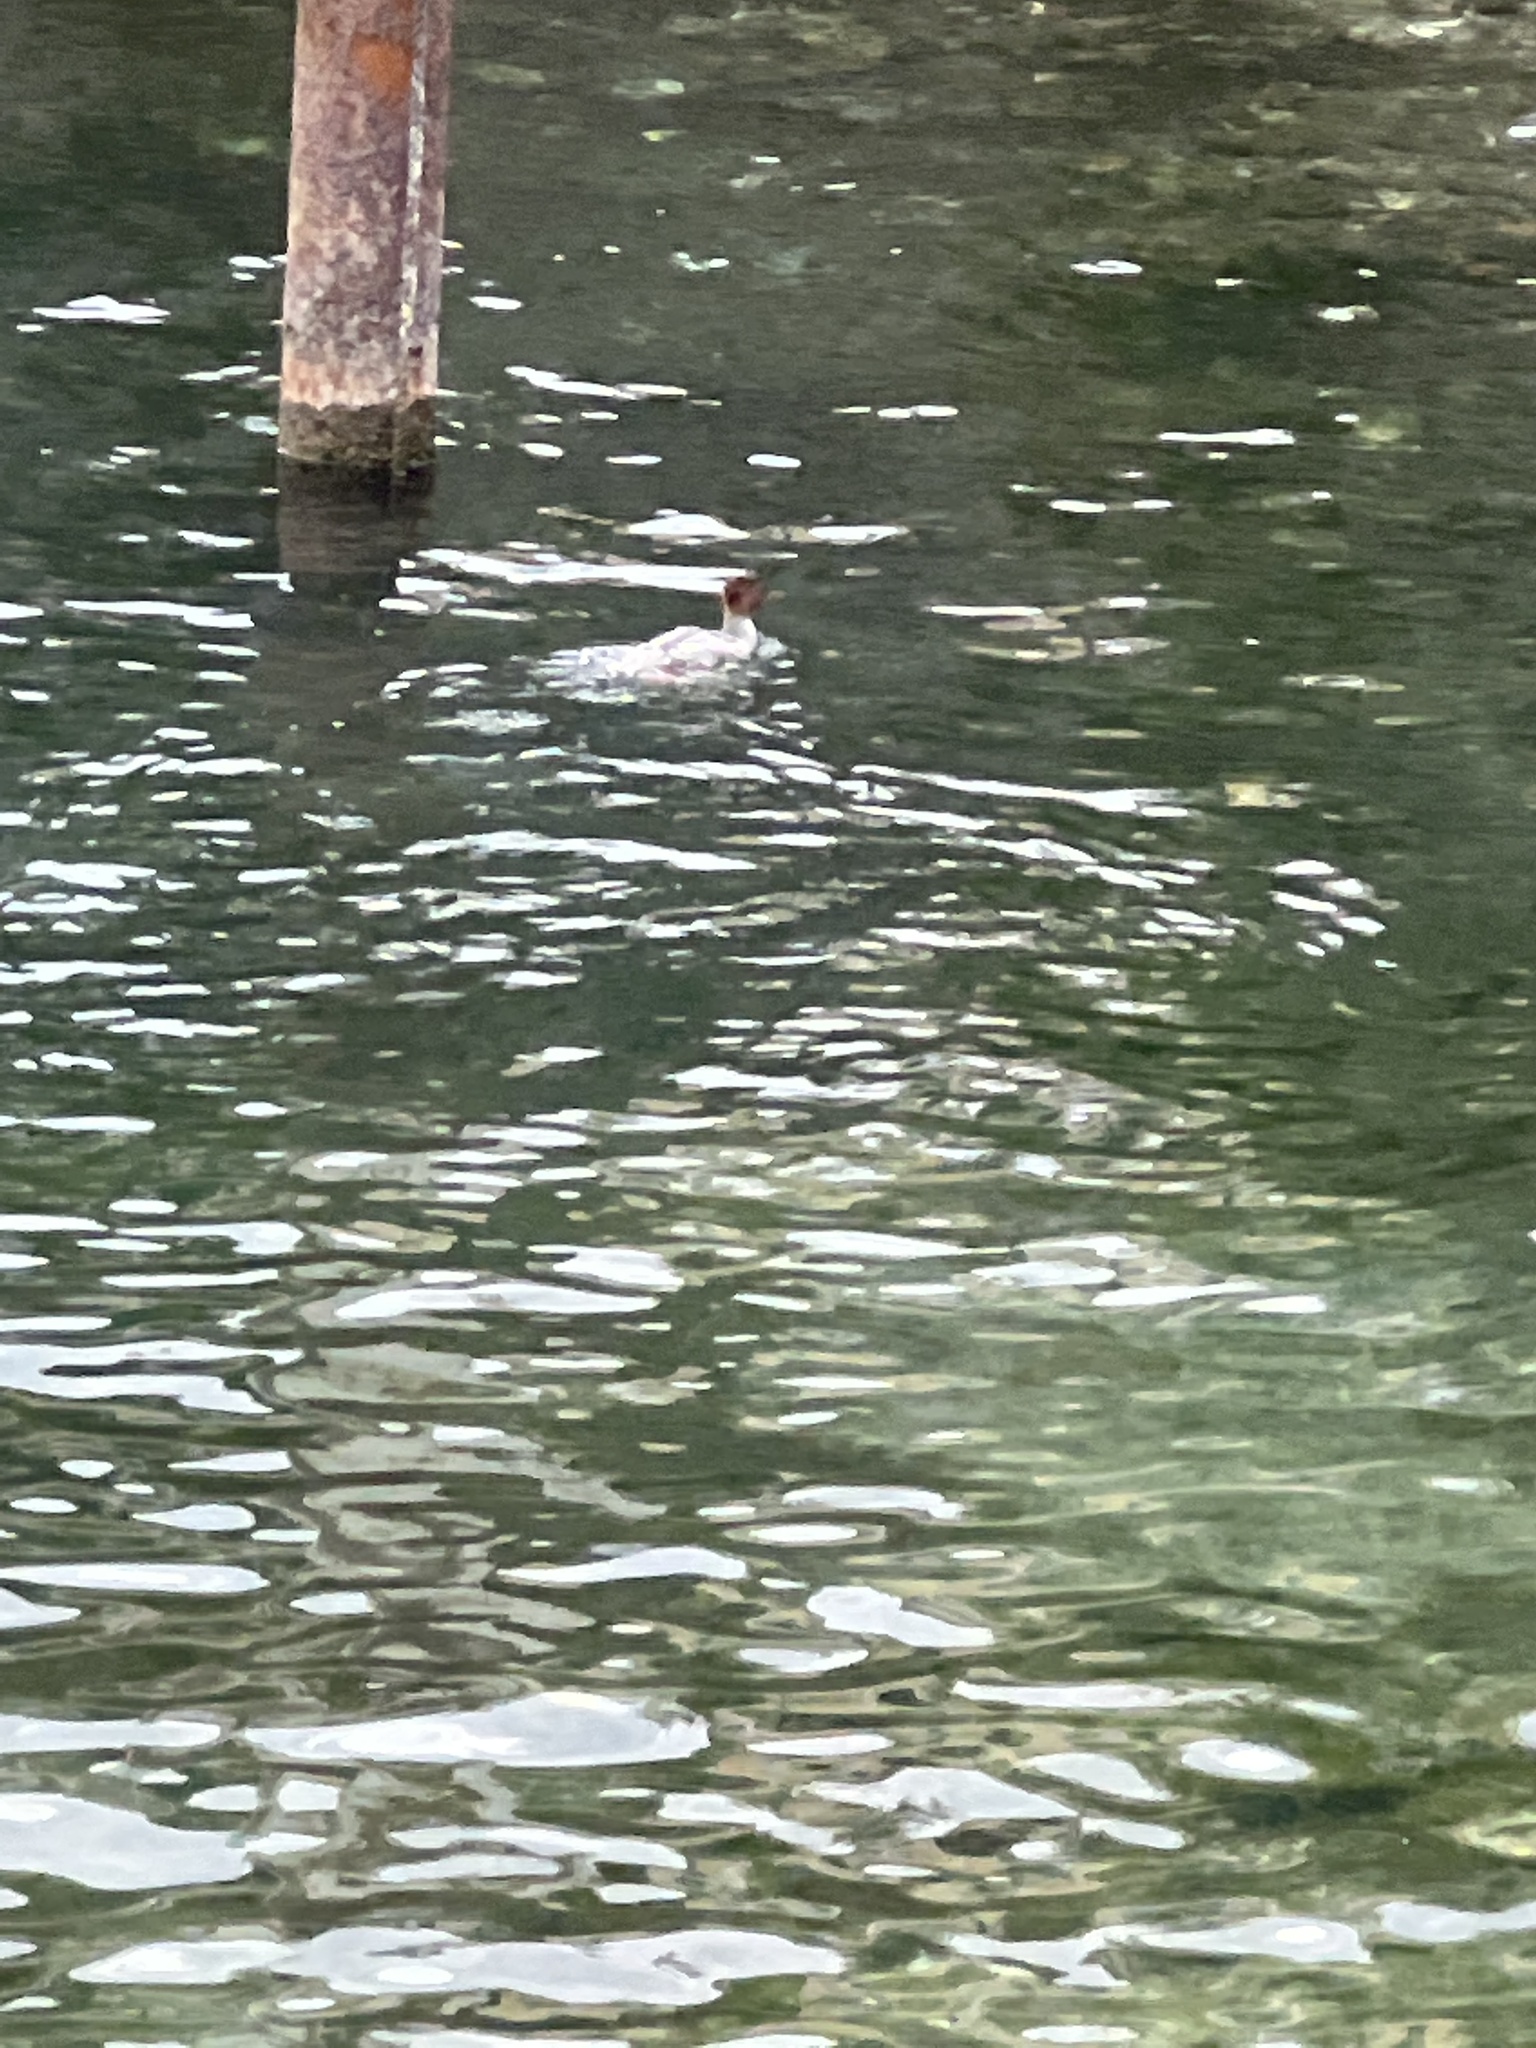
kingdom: Animalia
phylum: Chordata
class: Aves
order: Anseriformes
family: Anatidae
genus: Mergus
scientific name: Mergus merganser
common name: Common merganser
